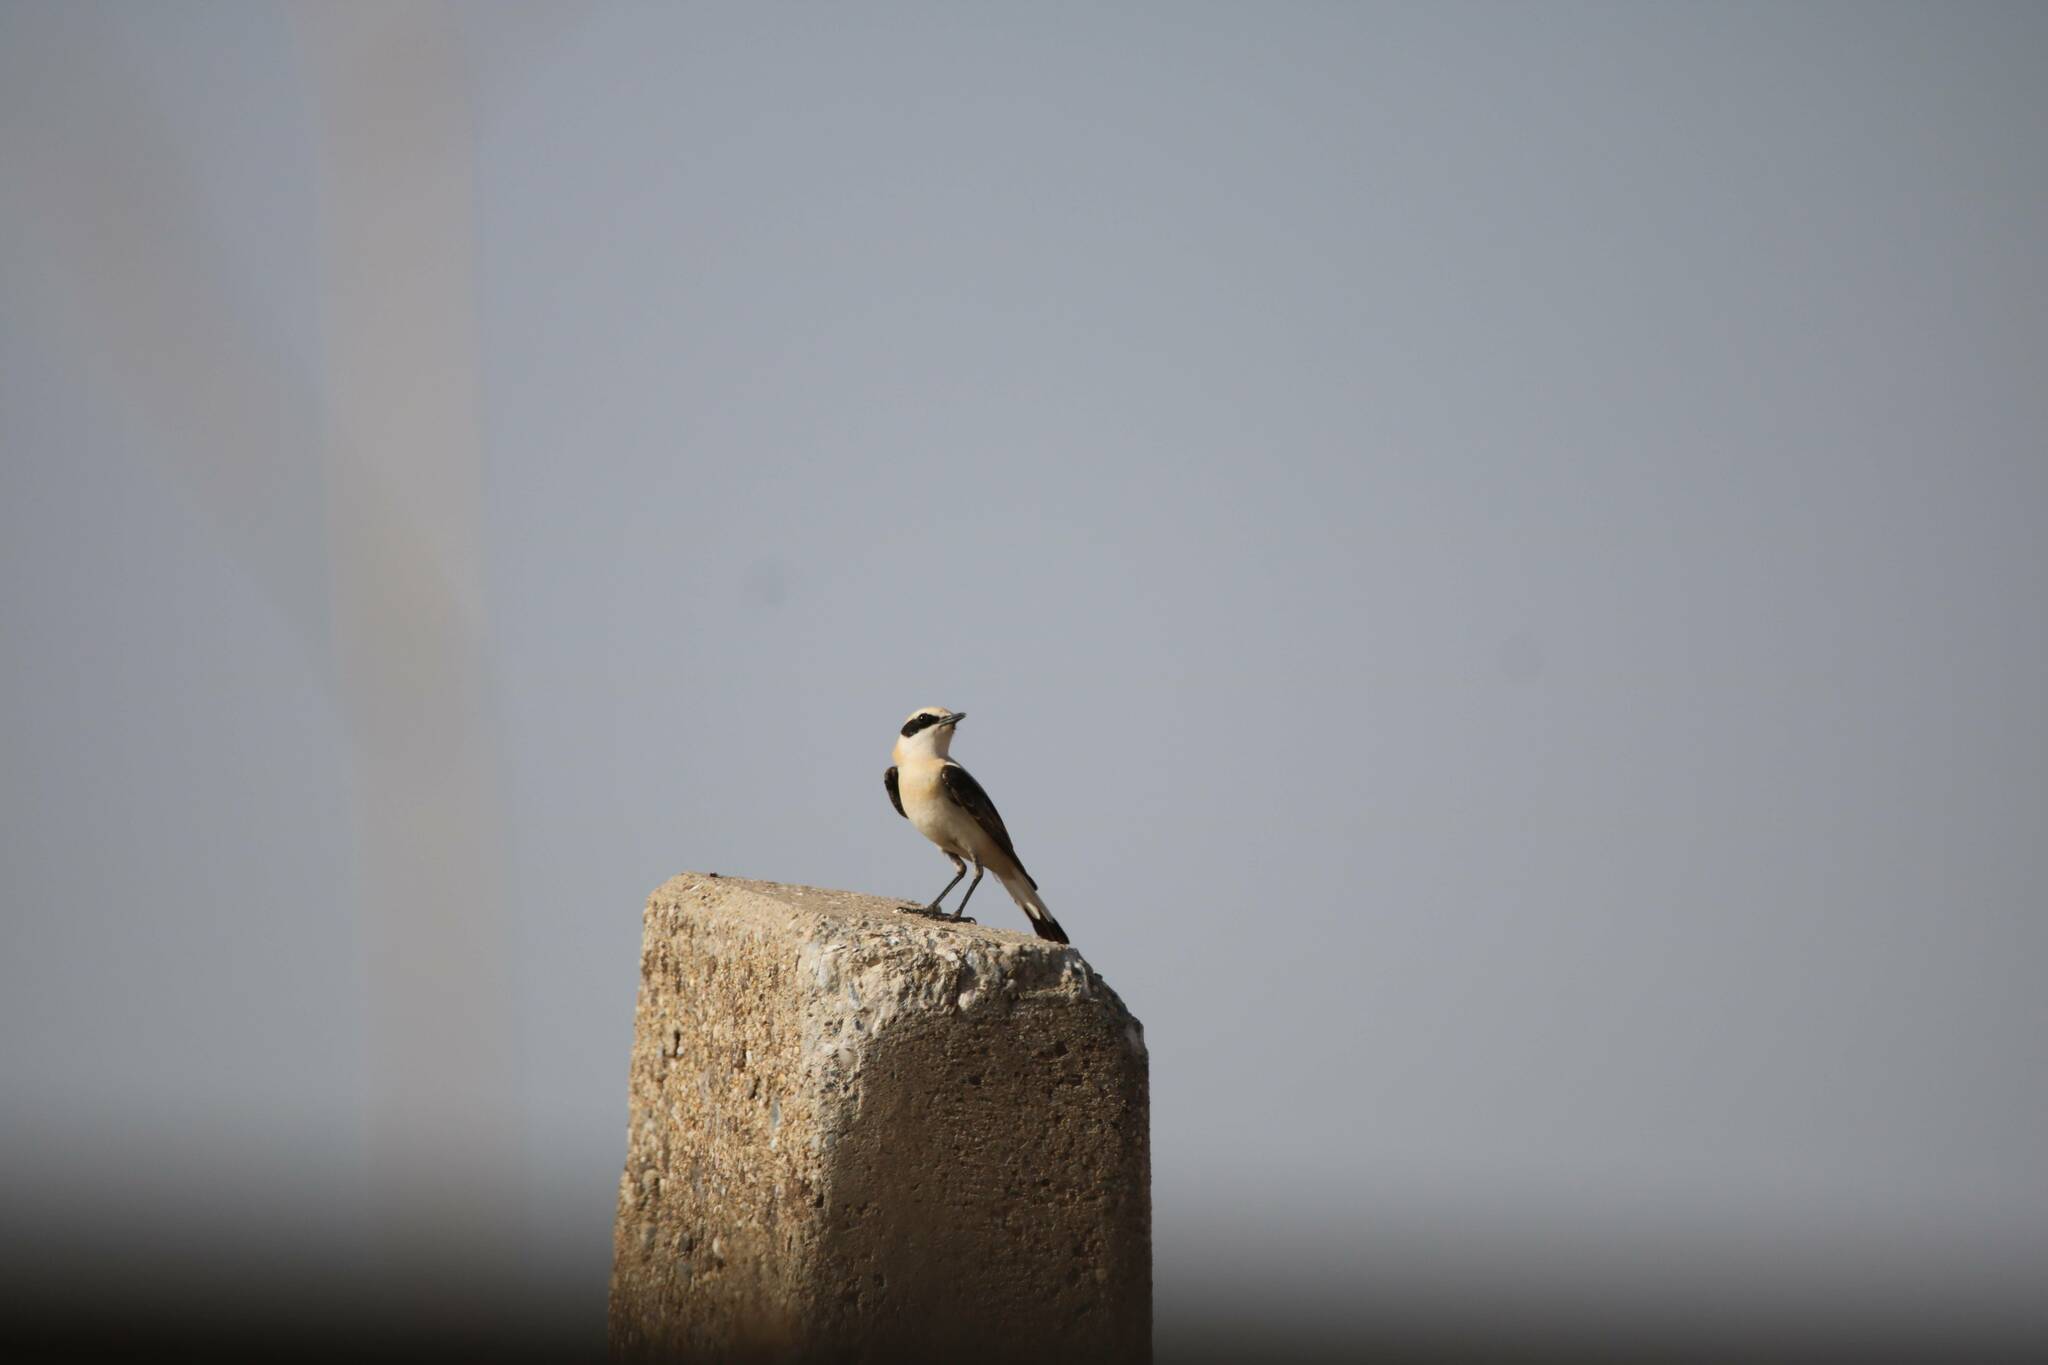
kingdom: Animalia
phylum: Chordata
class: Aves
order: Passeriformes
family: Muscicapidae
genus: Oenanthe
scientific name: Oenanthe hispanica
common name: Black-eared wheatear
